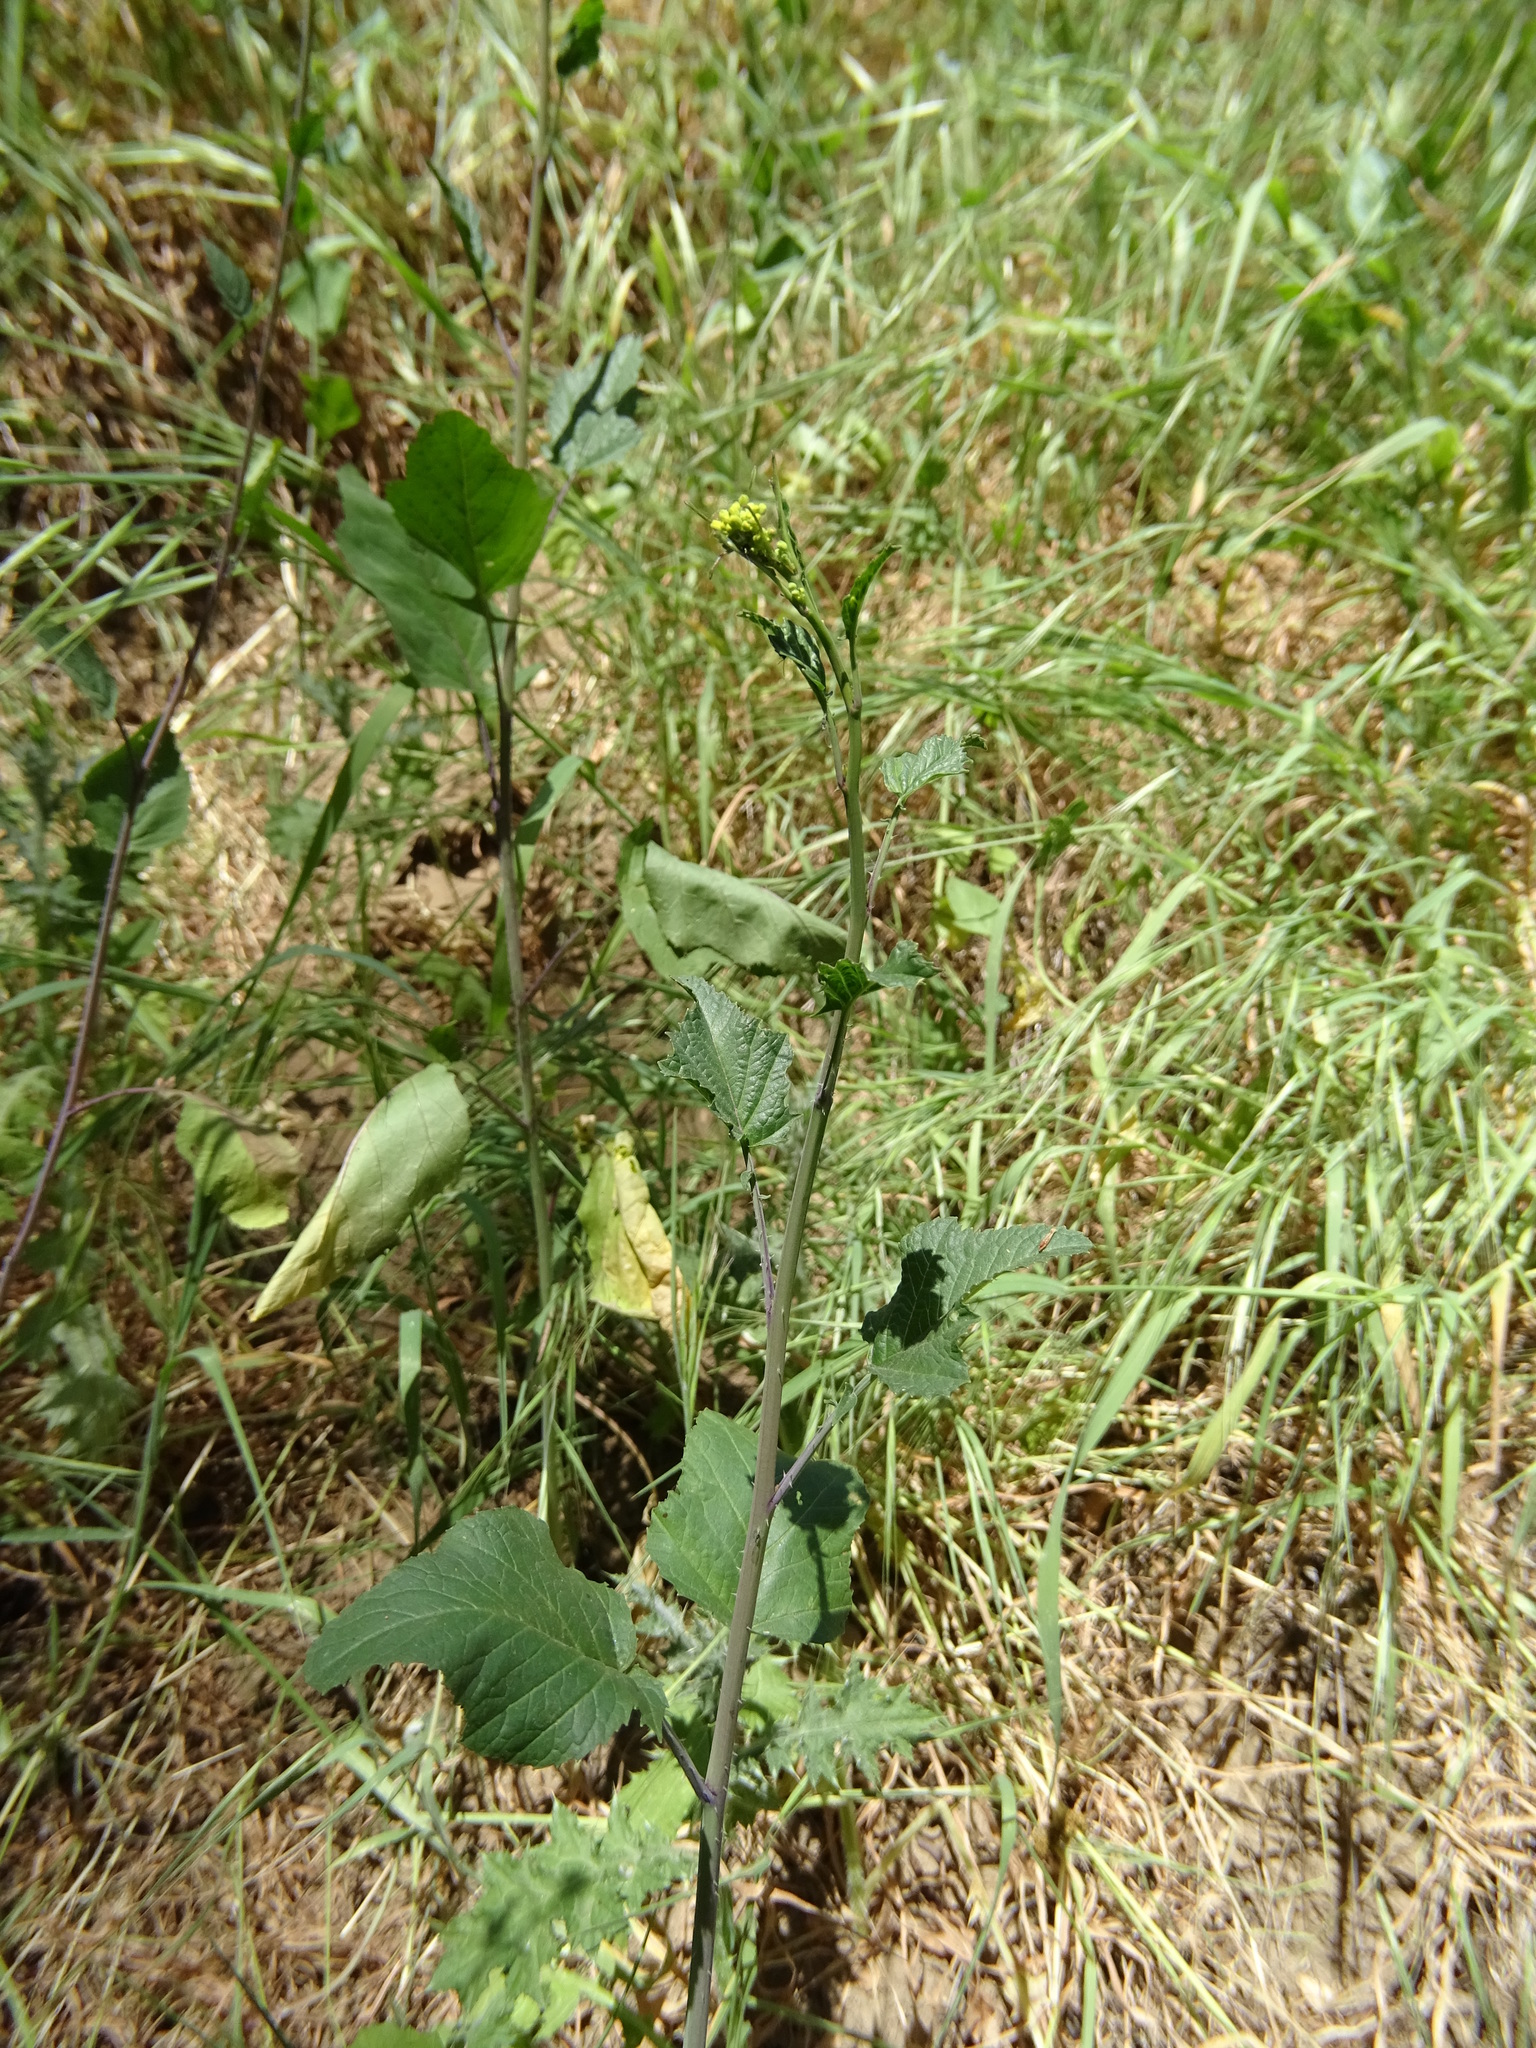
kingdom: Plantae
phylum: Tracheophyta
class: Magnoliopsida
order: Brassicales
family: Brassicaceae
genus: Brassica
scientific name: Brassica nigra
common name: Black mustard
